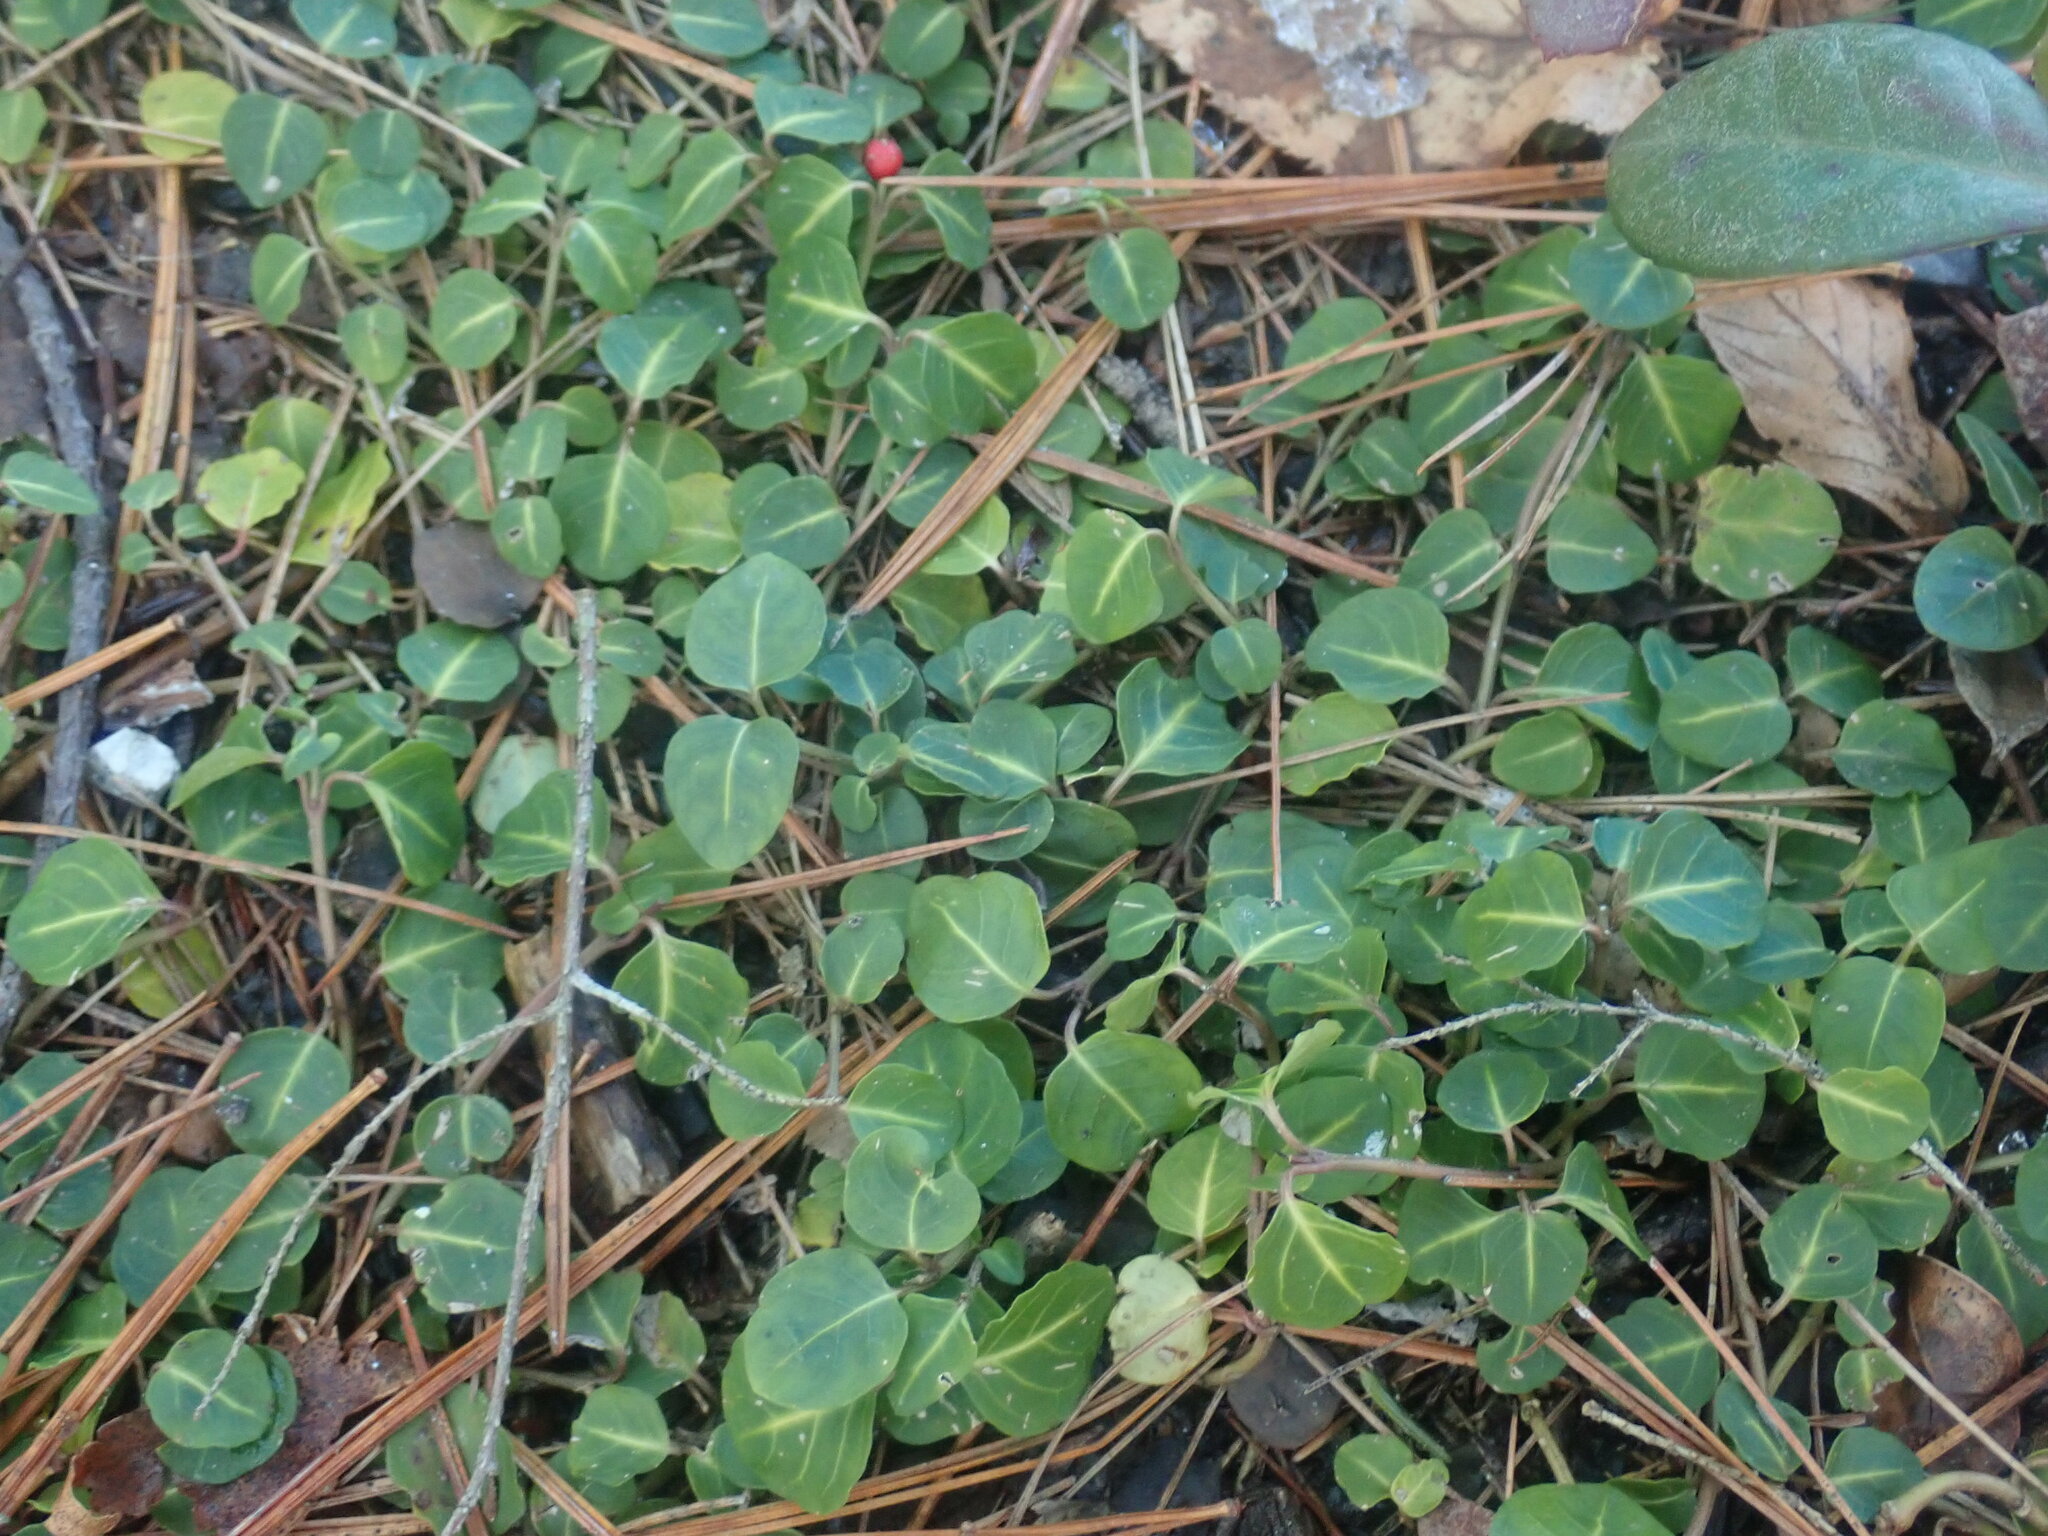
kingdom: Plantae
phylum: Tracheophyta
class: Magnoliopsida
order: Gentianales
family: Rubiaceae
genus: Mitchella
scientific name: Mitchella repens
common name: Partridge-berry
